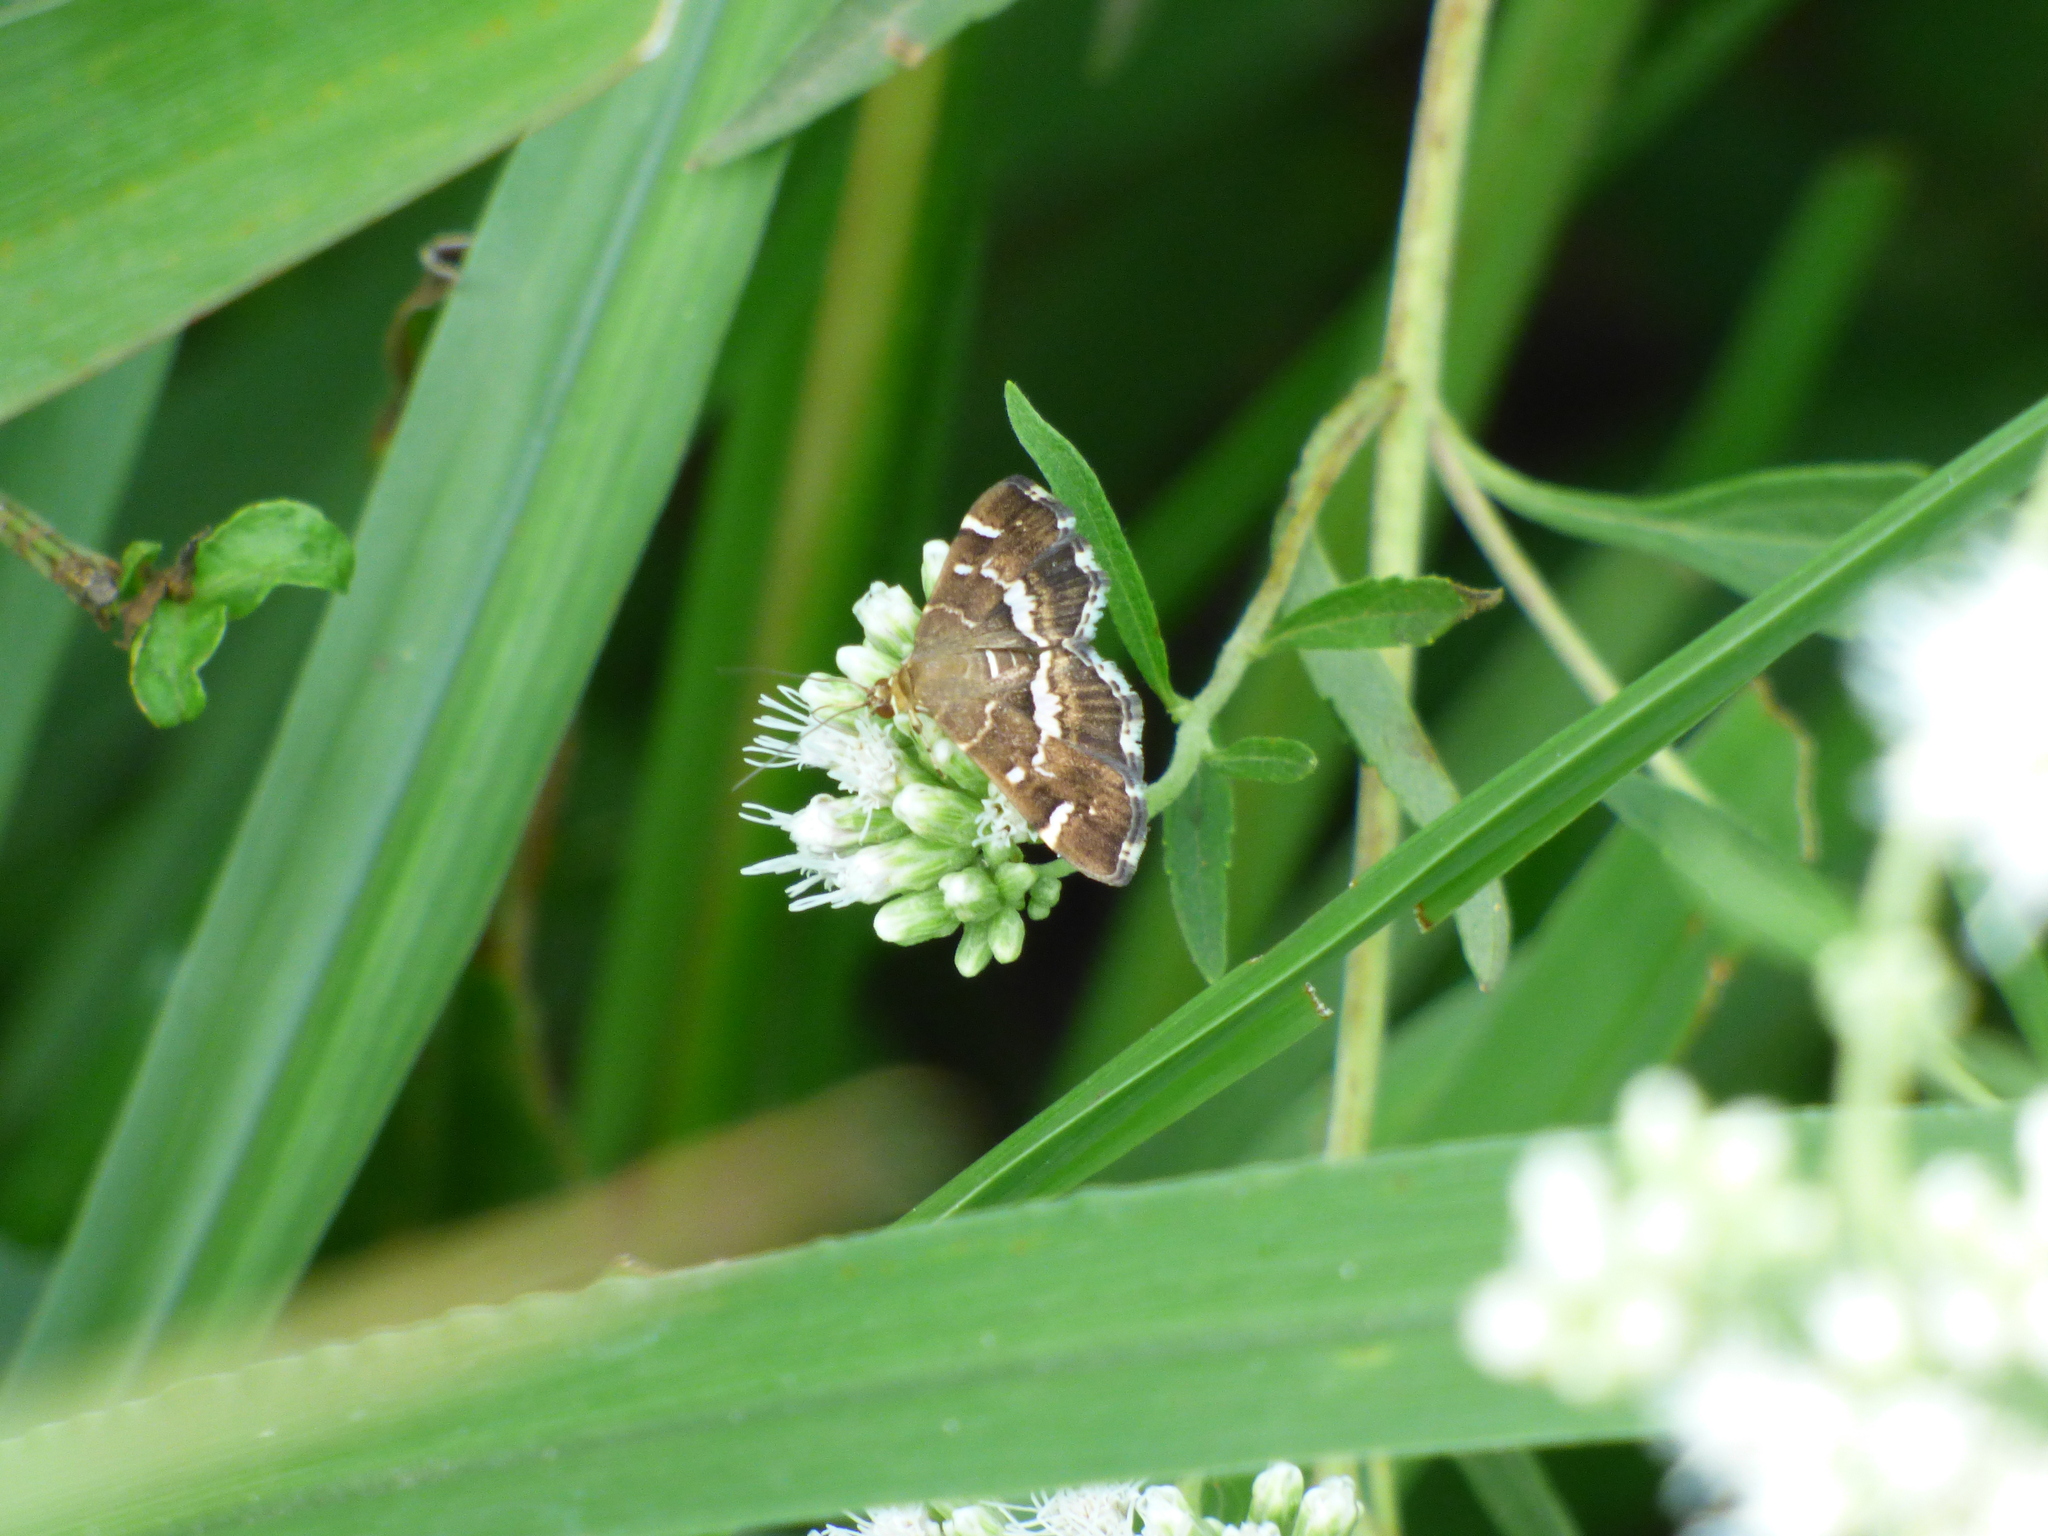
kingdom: Animalia
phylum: Arthropoda
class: Insecta
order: Lepidoptera
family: Crambidae
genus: Hymenia
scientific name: Hymenia perspectalis
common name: Spotted beet webworm
